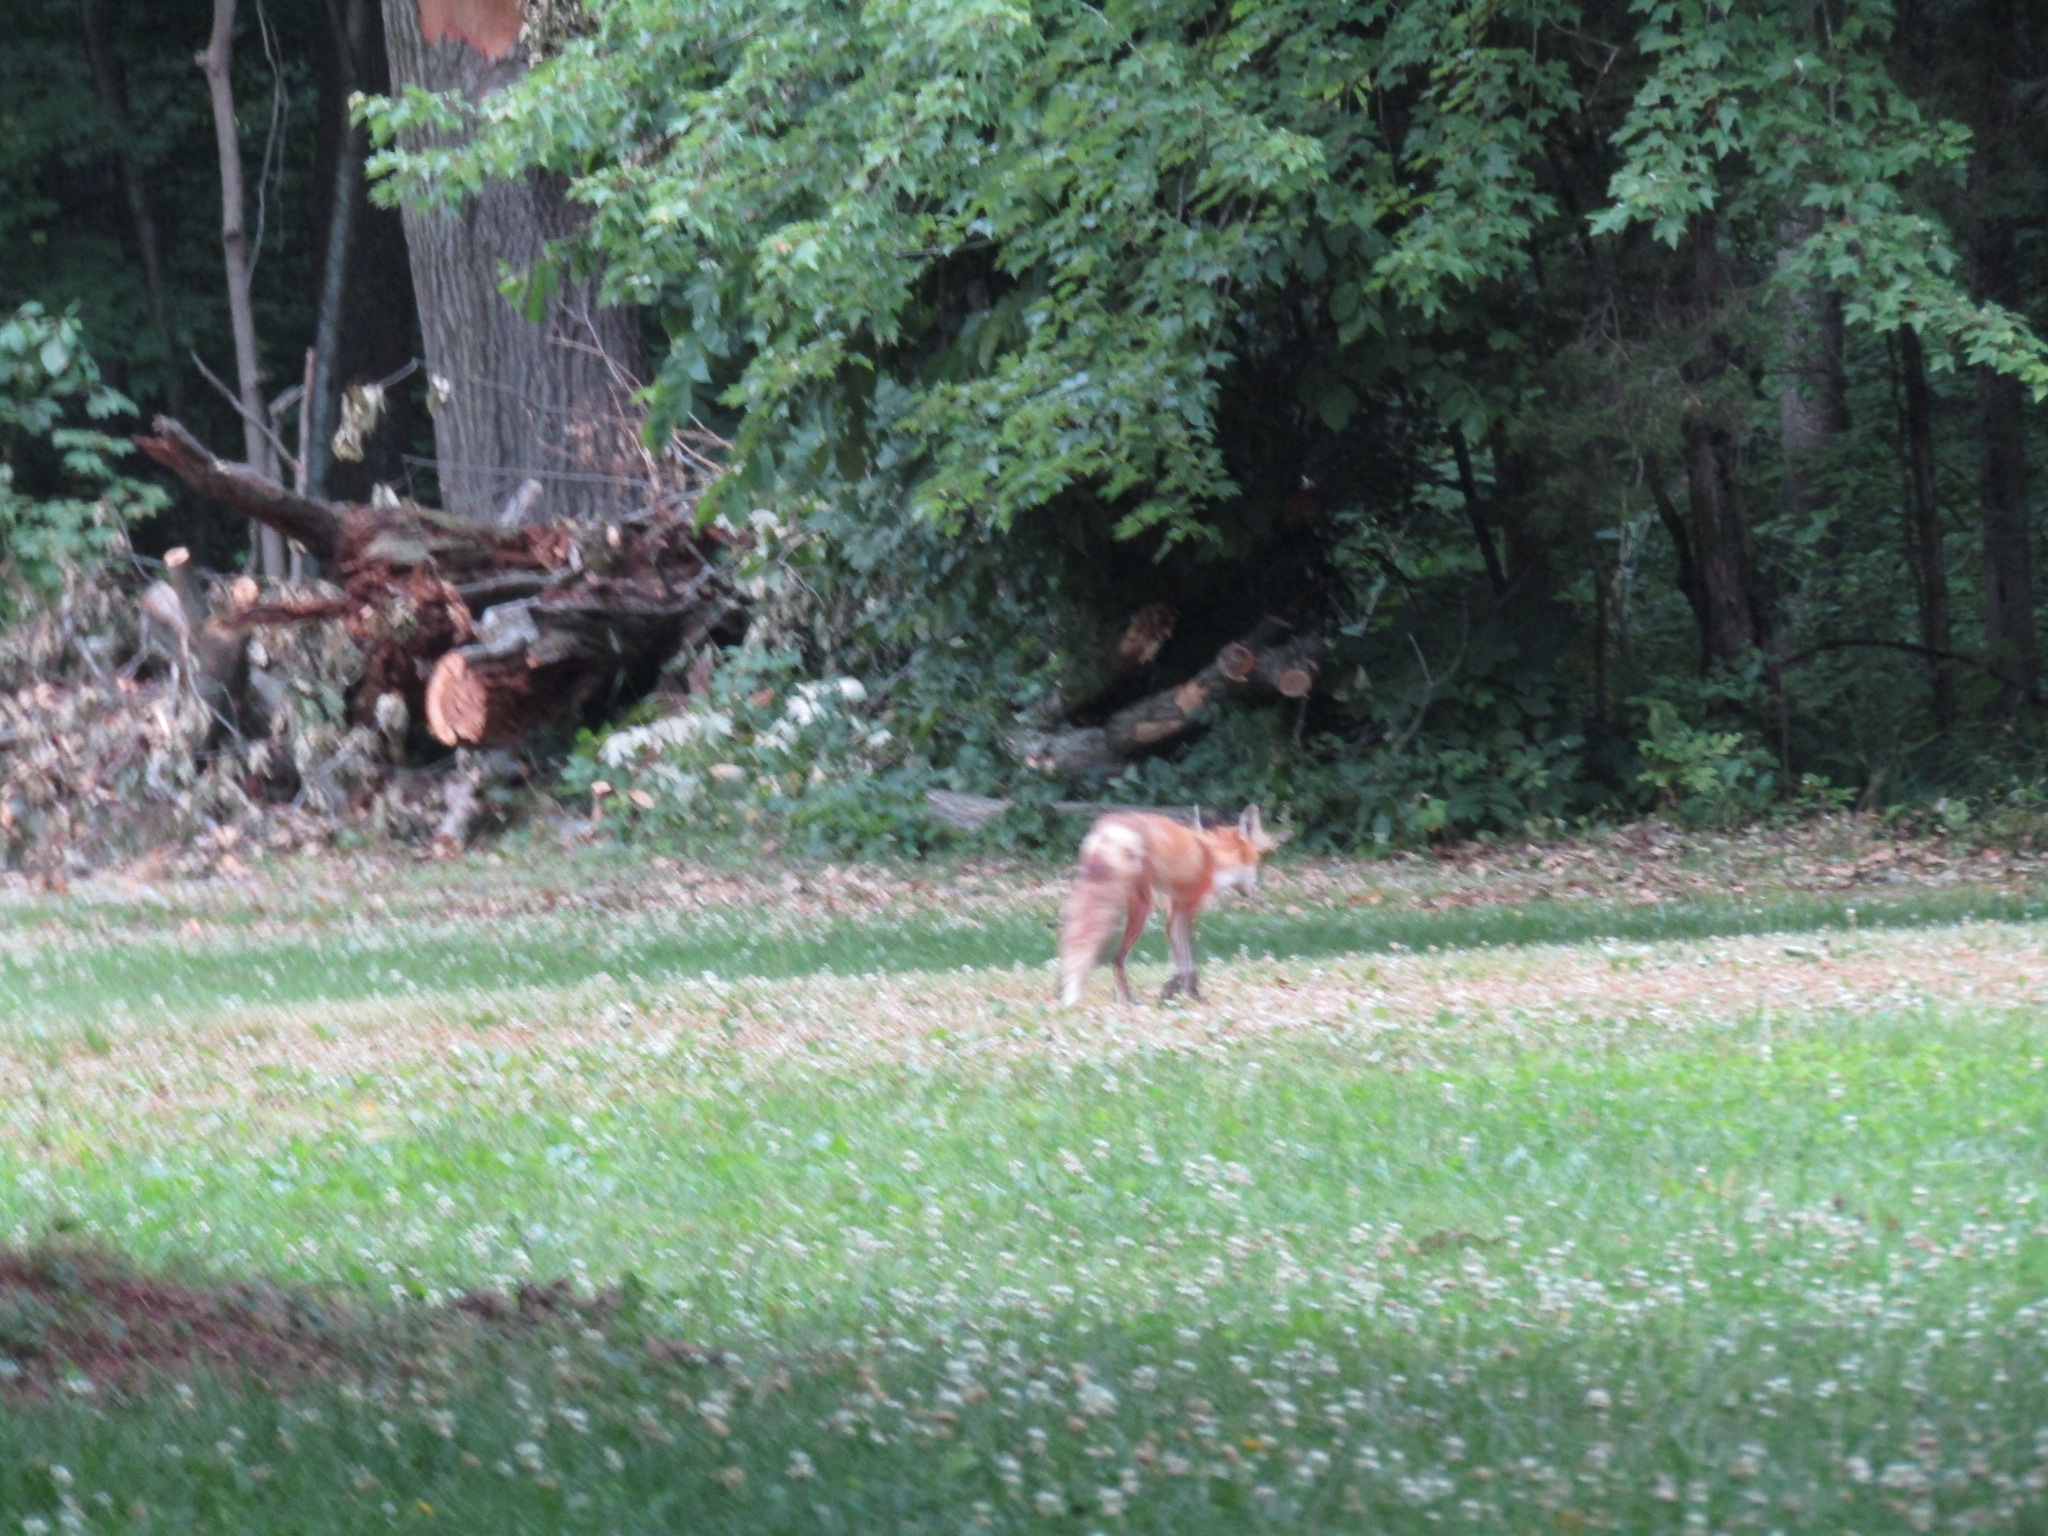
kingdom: Animalia
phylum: Chordata
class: Mammalia
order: Carnivora
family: Canidae
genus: Vulpes
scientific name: Vulpes vulpes
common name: Red fox
